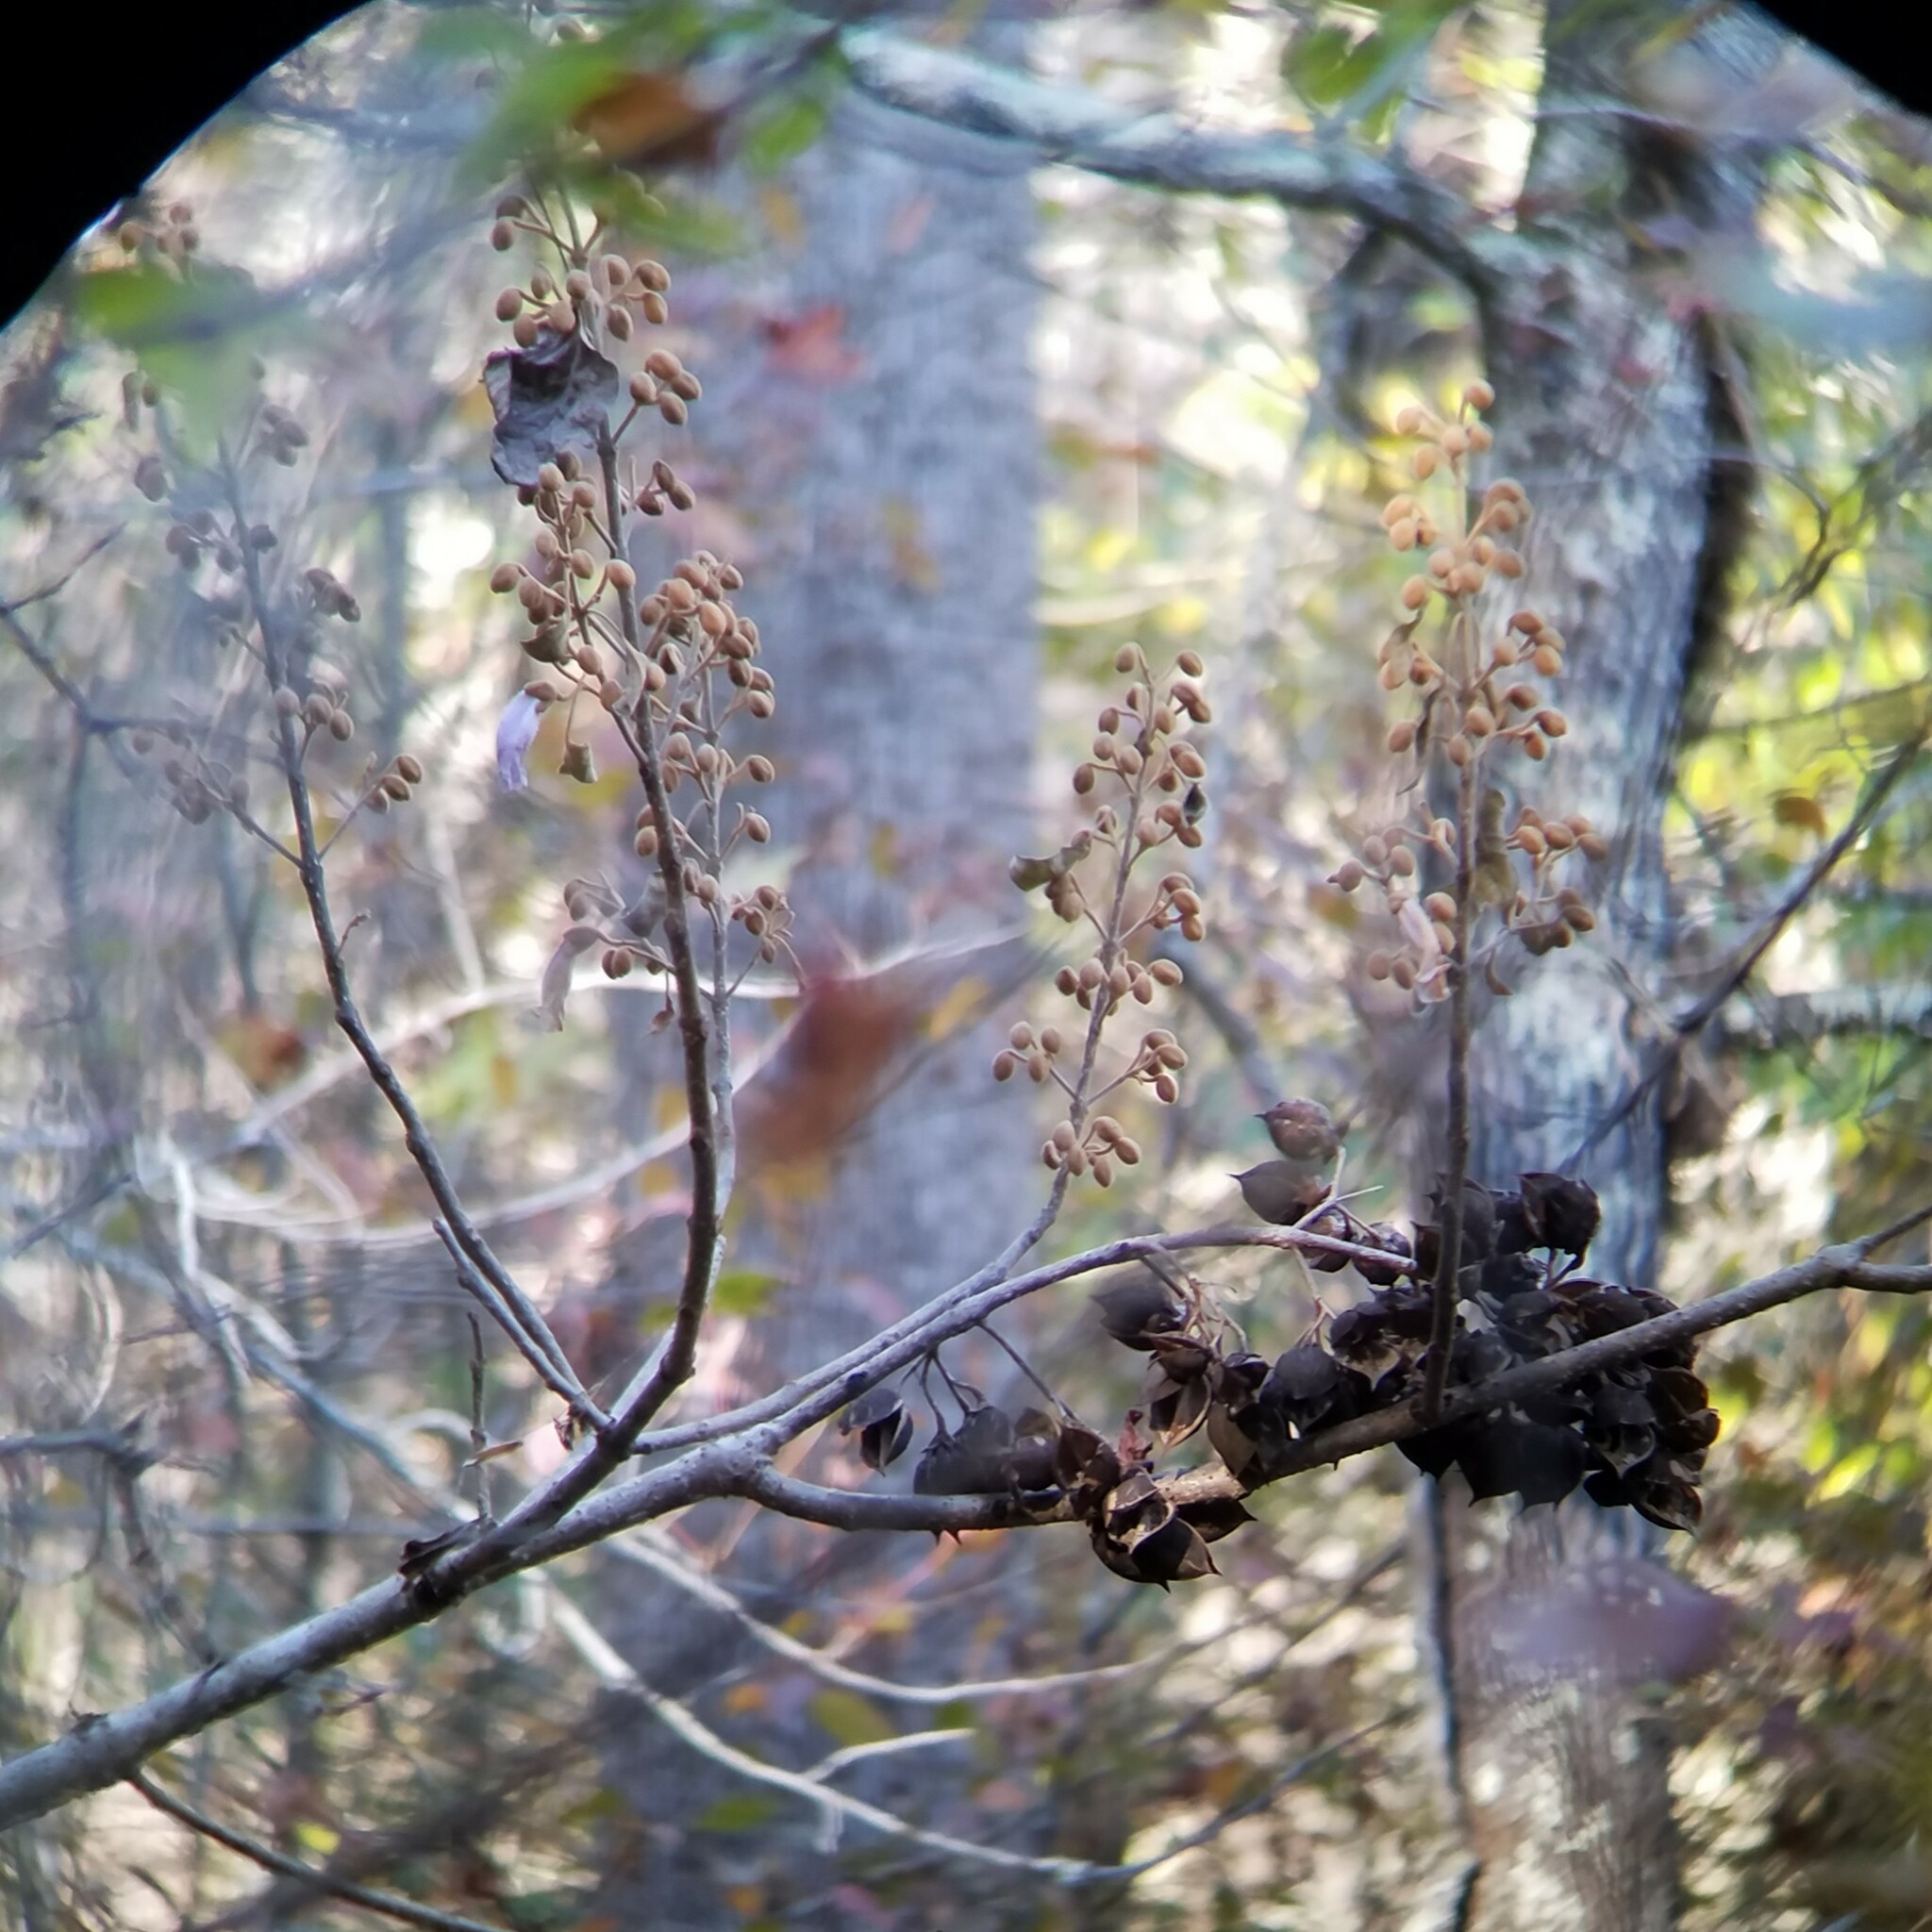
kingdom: Plantae
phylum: Tracheophyta
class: Magnoliopsida
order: Lamiales
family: Paulowniaceae
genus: Paulownia
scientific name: Paulownia tomentosa
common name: Foxglove-tree
